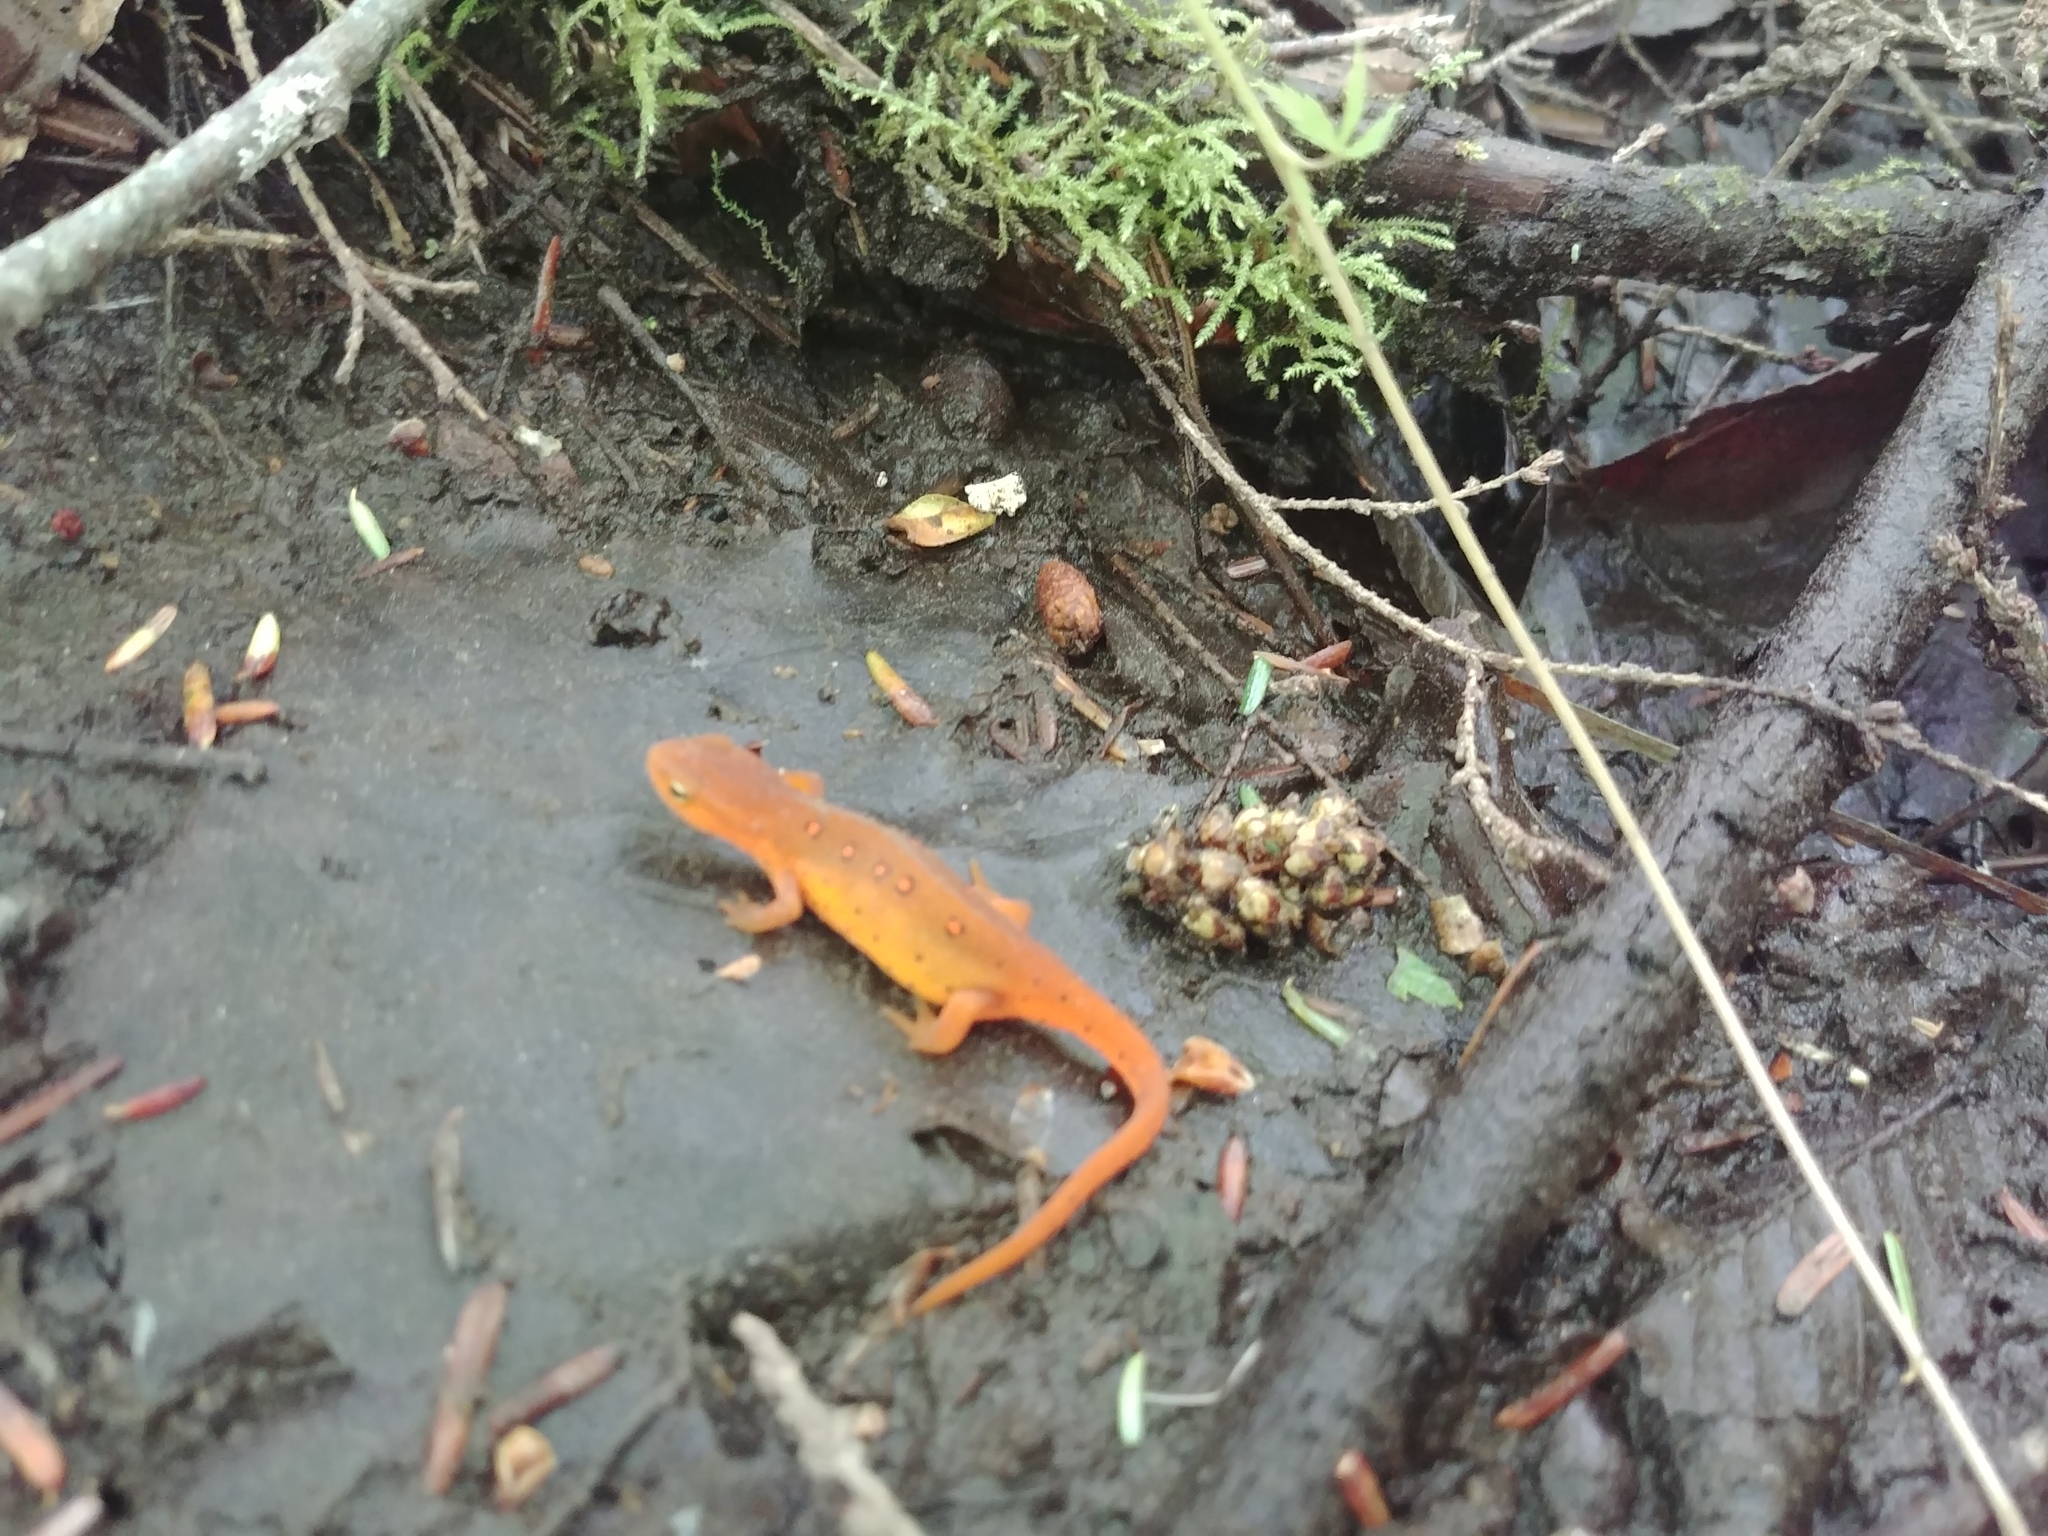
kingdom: Animalia
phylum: Chordata
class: Amphibia
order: Caudata
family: Salamandridae
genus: Notophthalmus
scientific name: Notophthalmus viridescens
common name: Eastern newt
